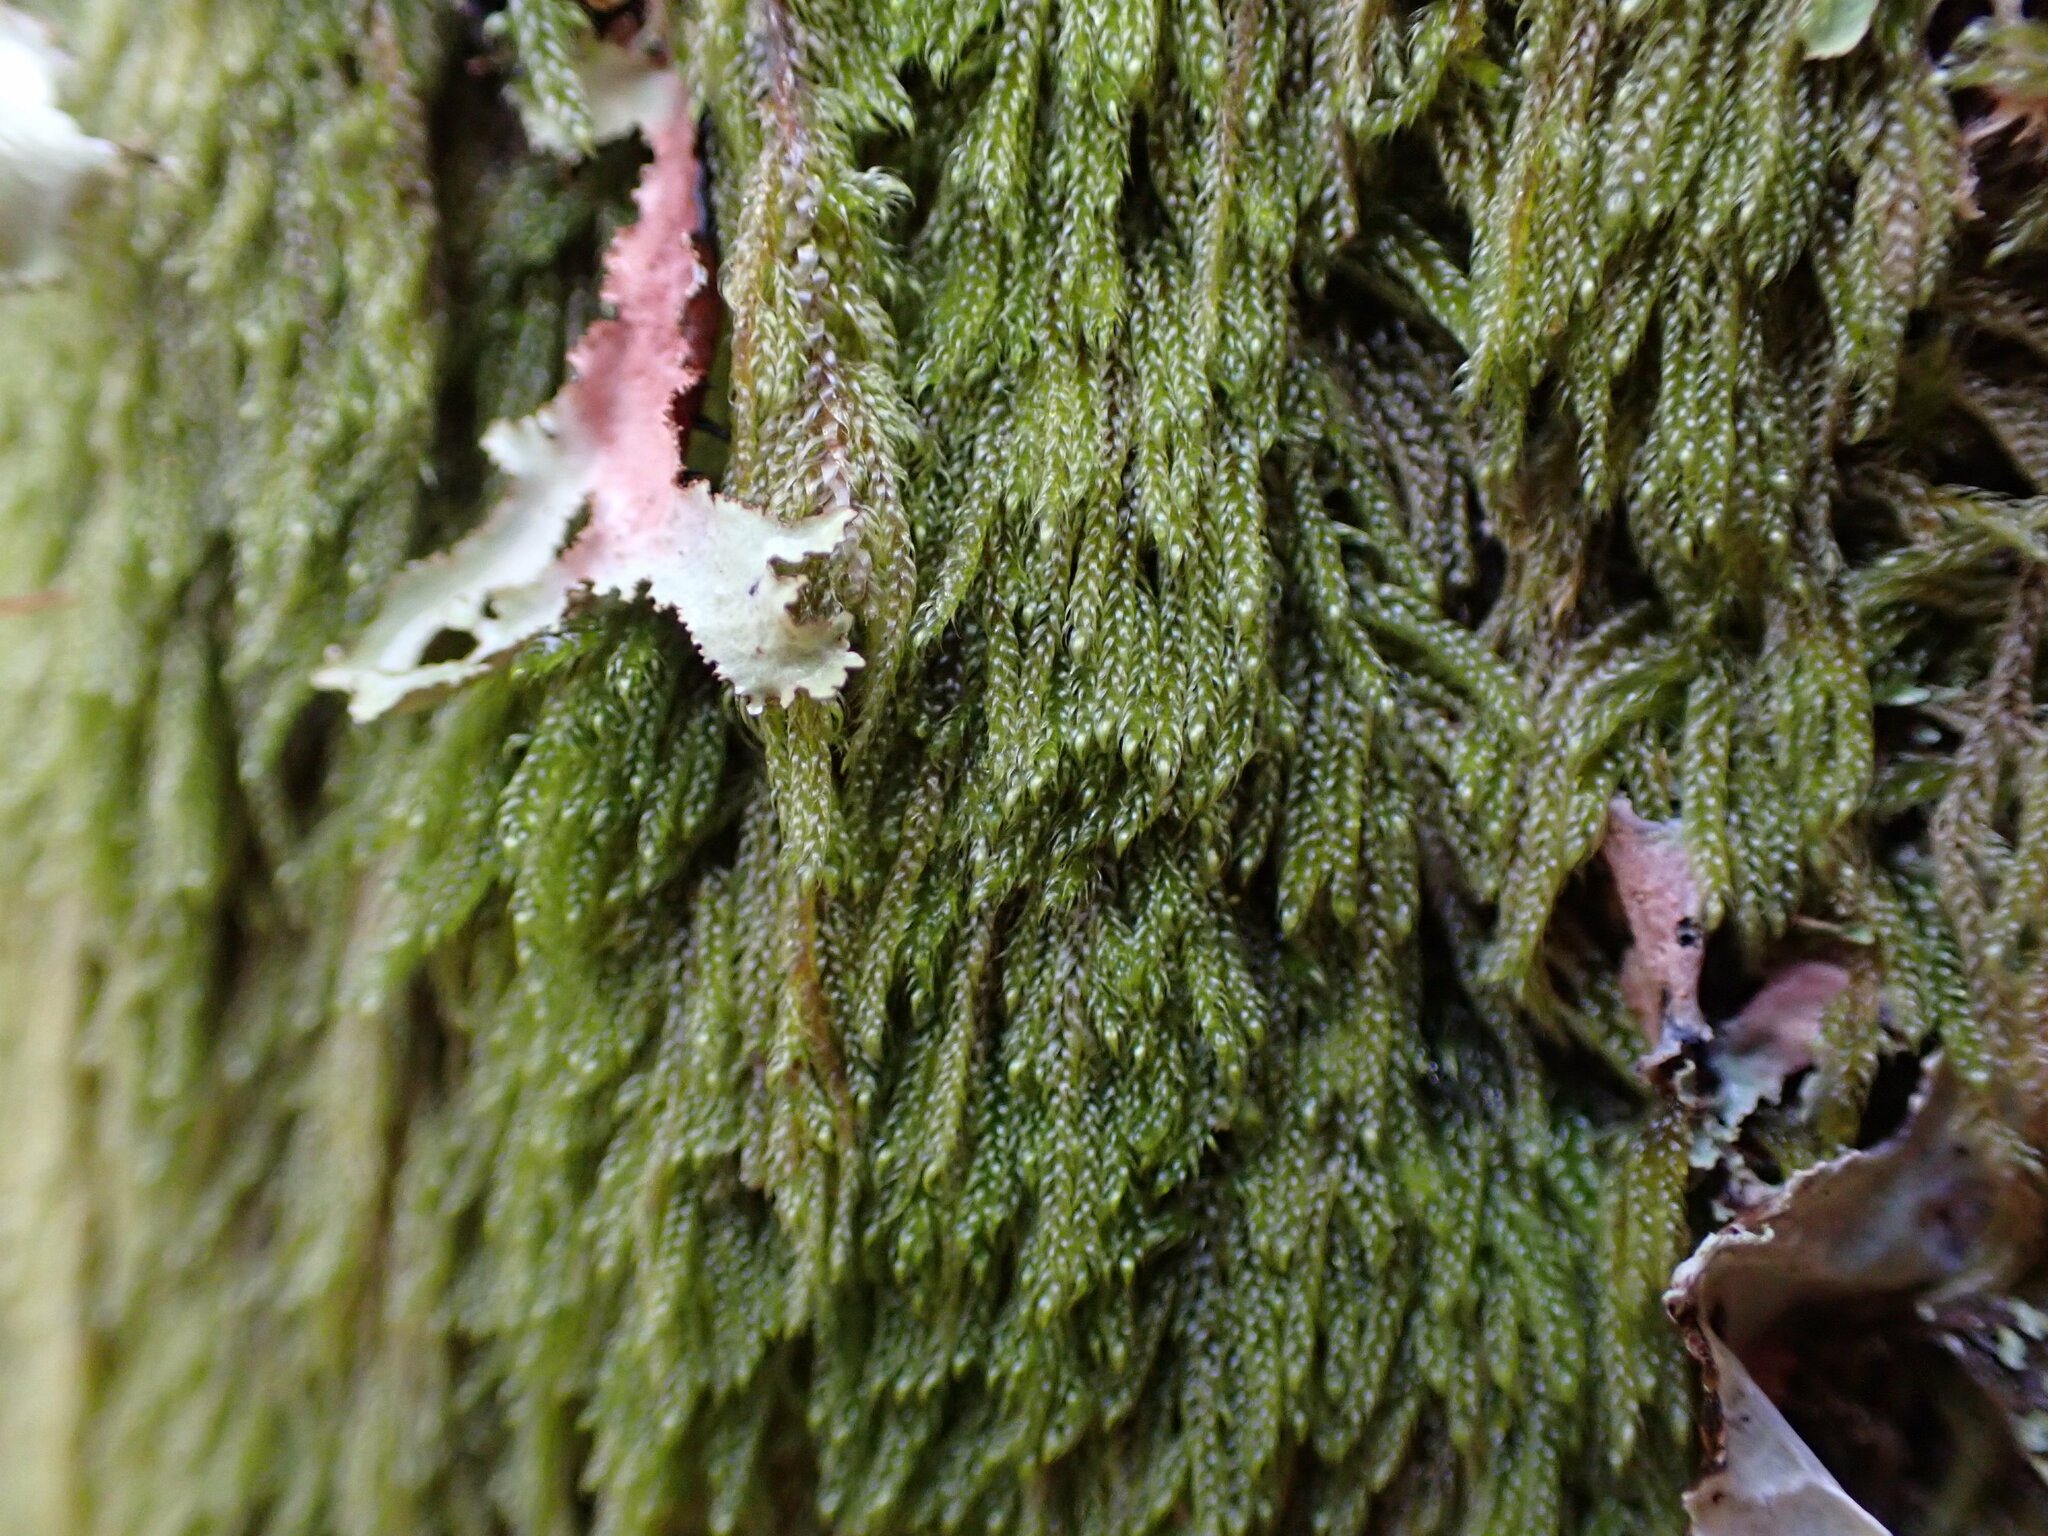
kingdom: Plantae
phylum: Bryophyta
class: Bryopsida
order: Hypnales
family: Pylaisiadelphaceae
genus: Trochophyllohypnum
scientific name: Trochophyllohypnum circinale
